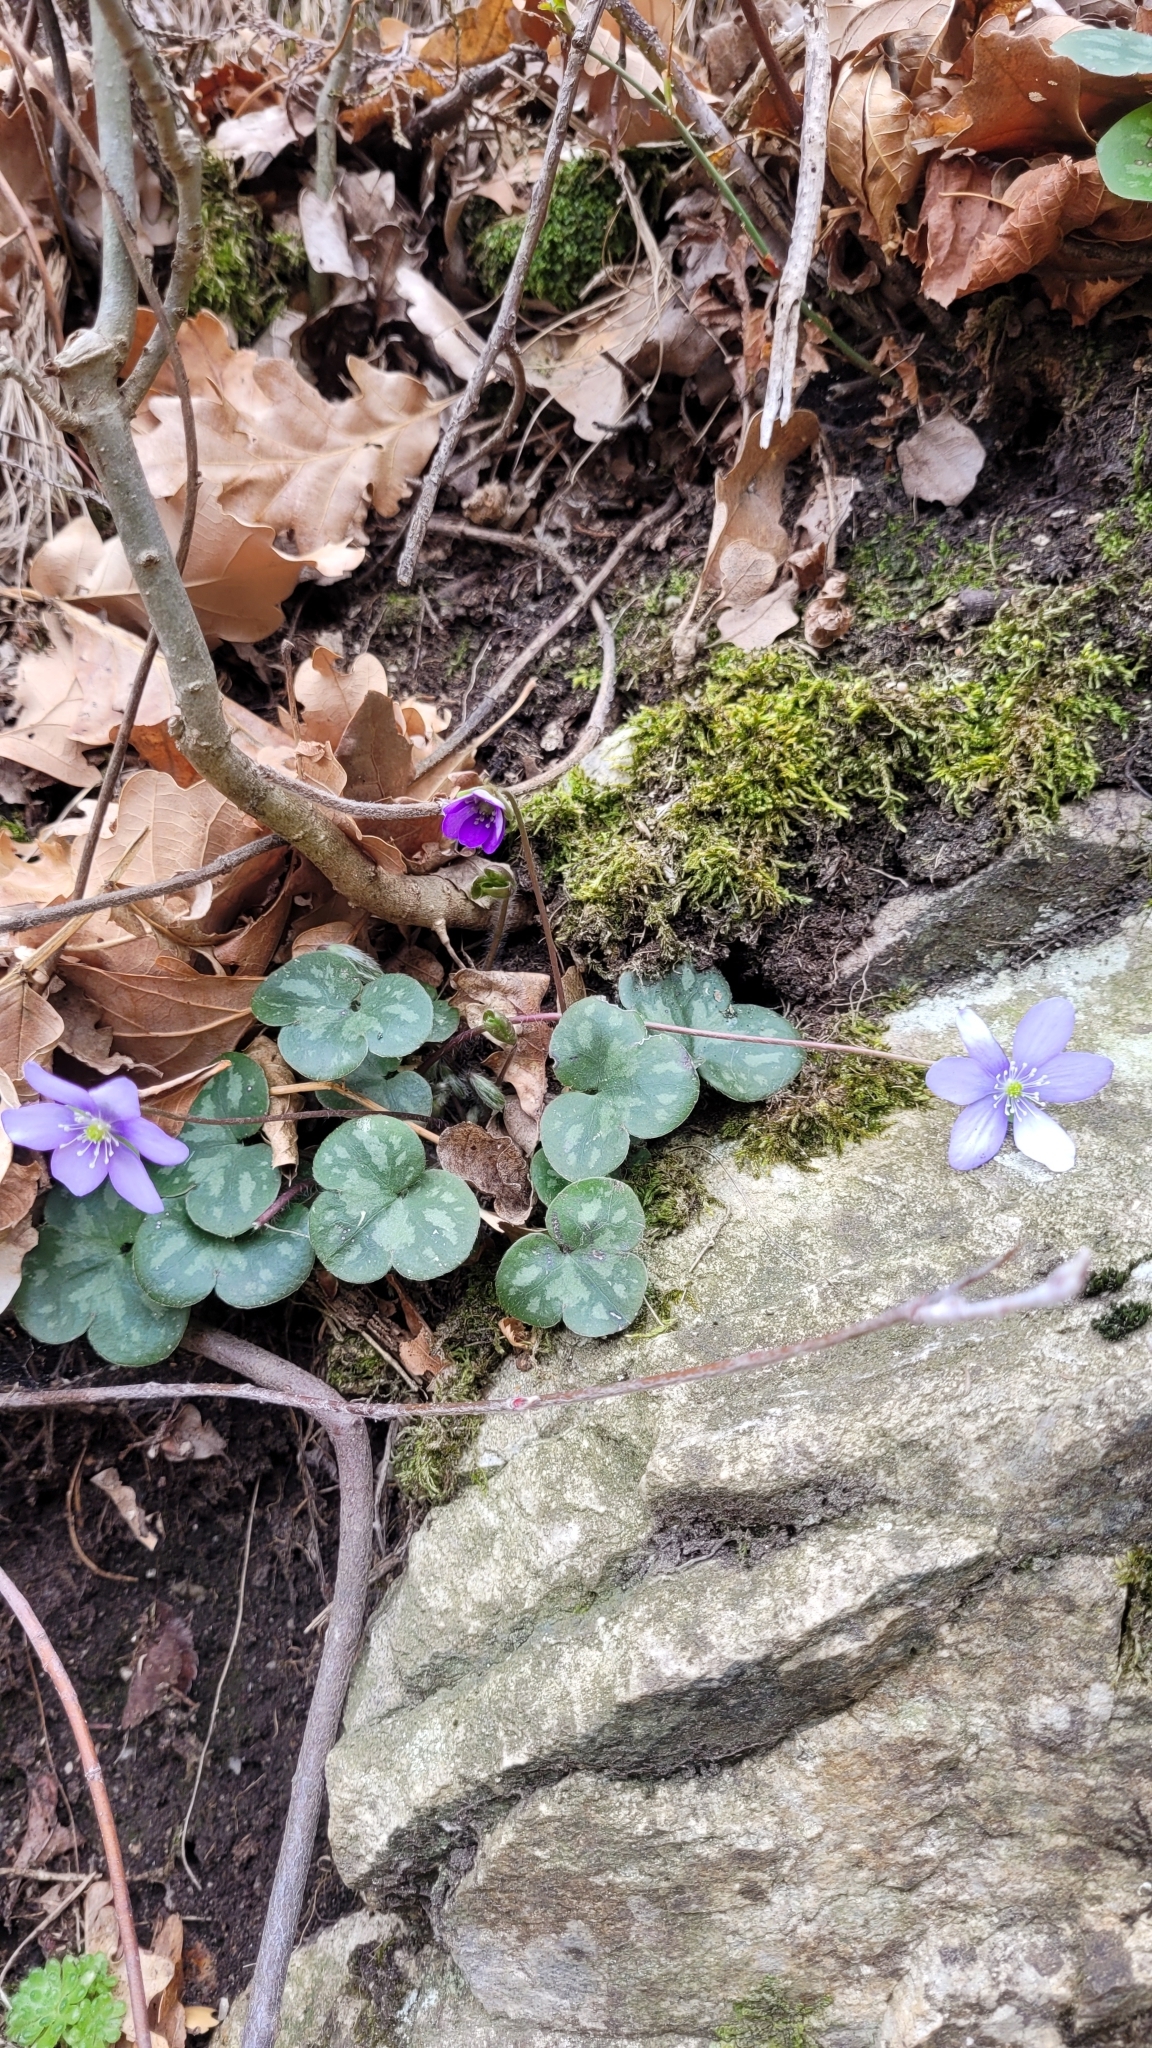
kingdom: Plantae
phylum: Tracheophyta
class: Magnoliopsida
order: Ranunculales
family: Ranunculaceae
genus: Hepatica
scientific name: Hepatica nobilis
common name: Liverleaf
